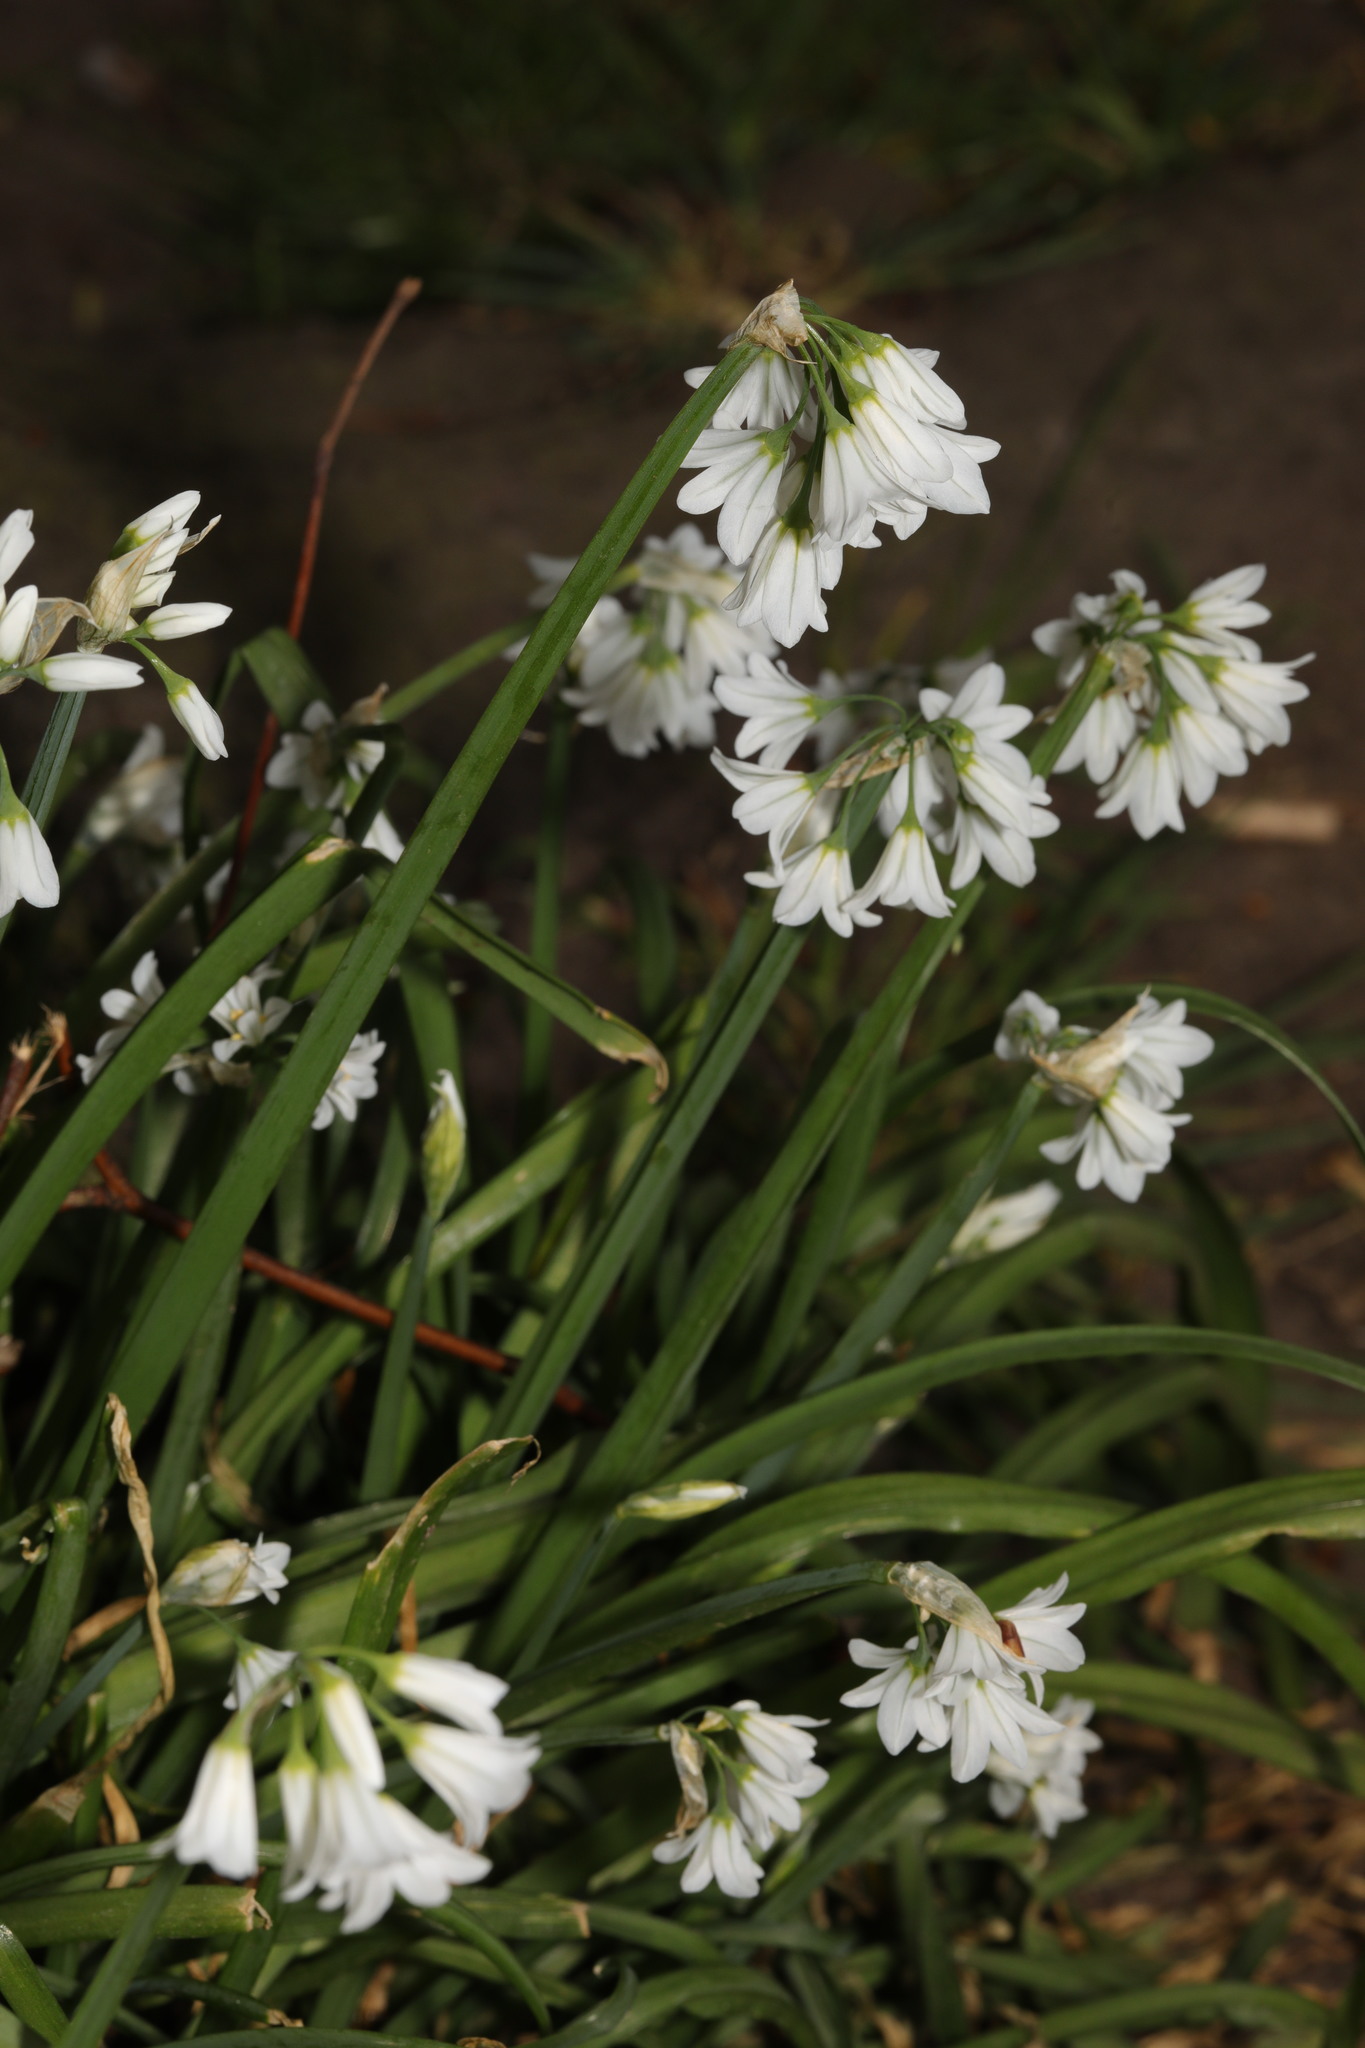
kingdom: Plantae
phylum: Tracheophyta
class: Liliopsida
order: Asparagales
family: Amaryllidaceae
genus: Allium
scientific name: Allium triquetrum
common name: Three-cornered garlic
